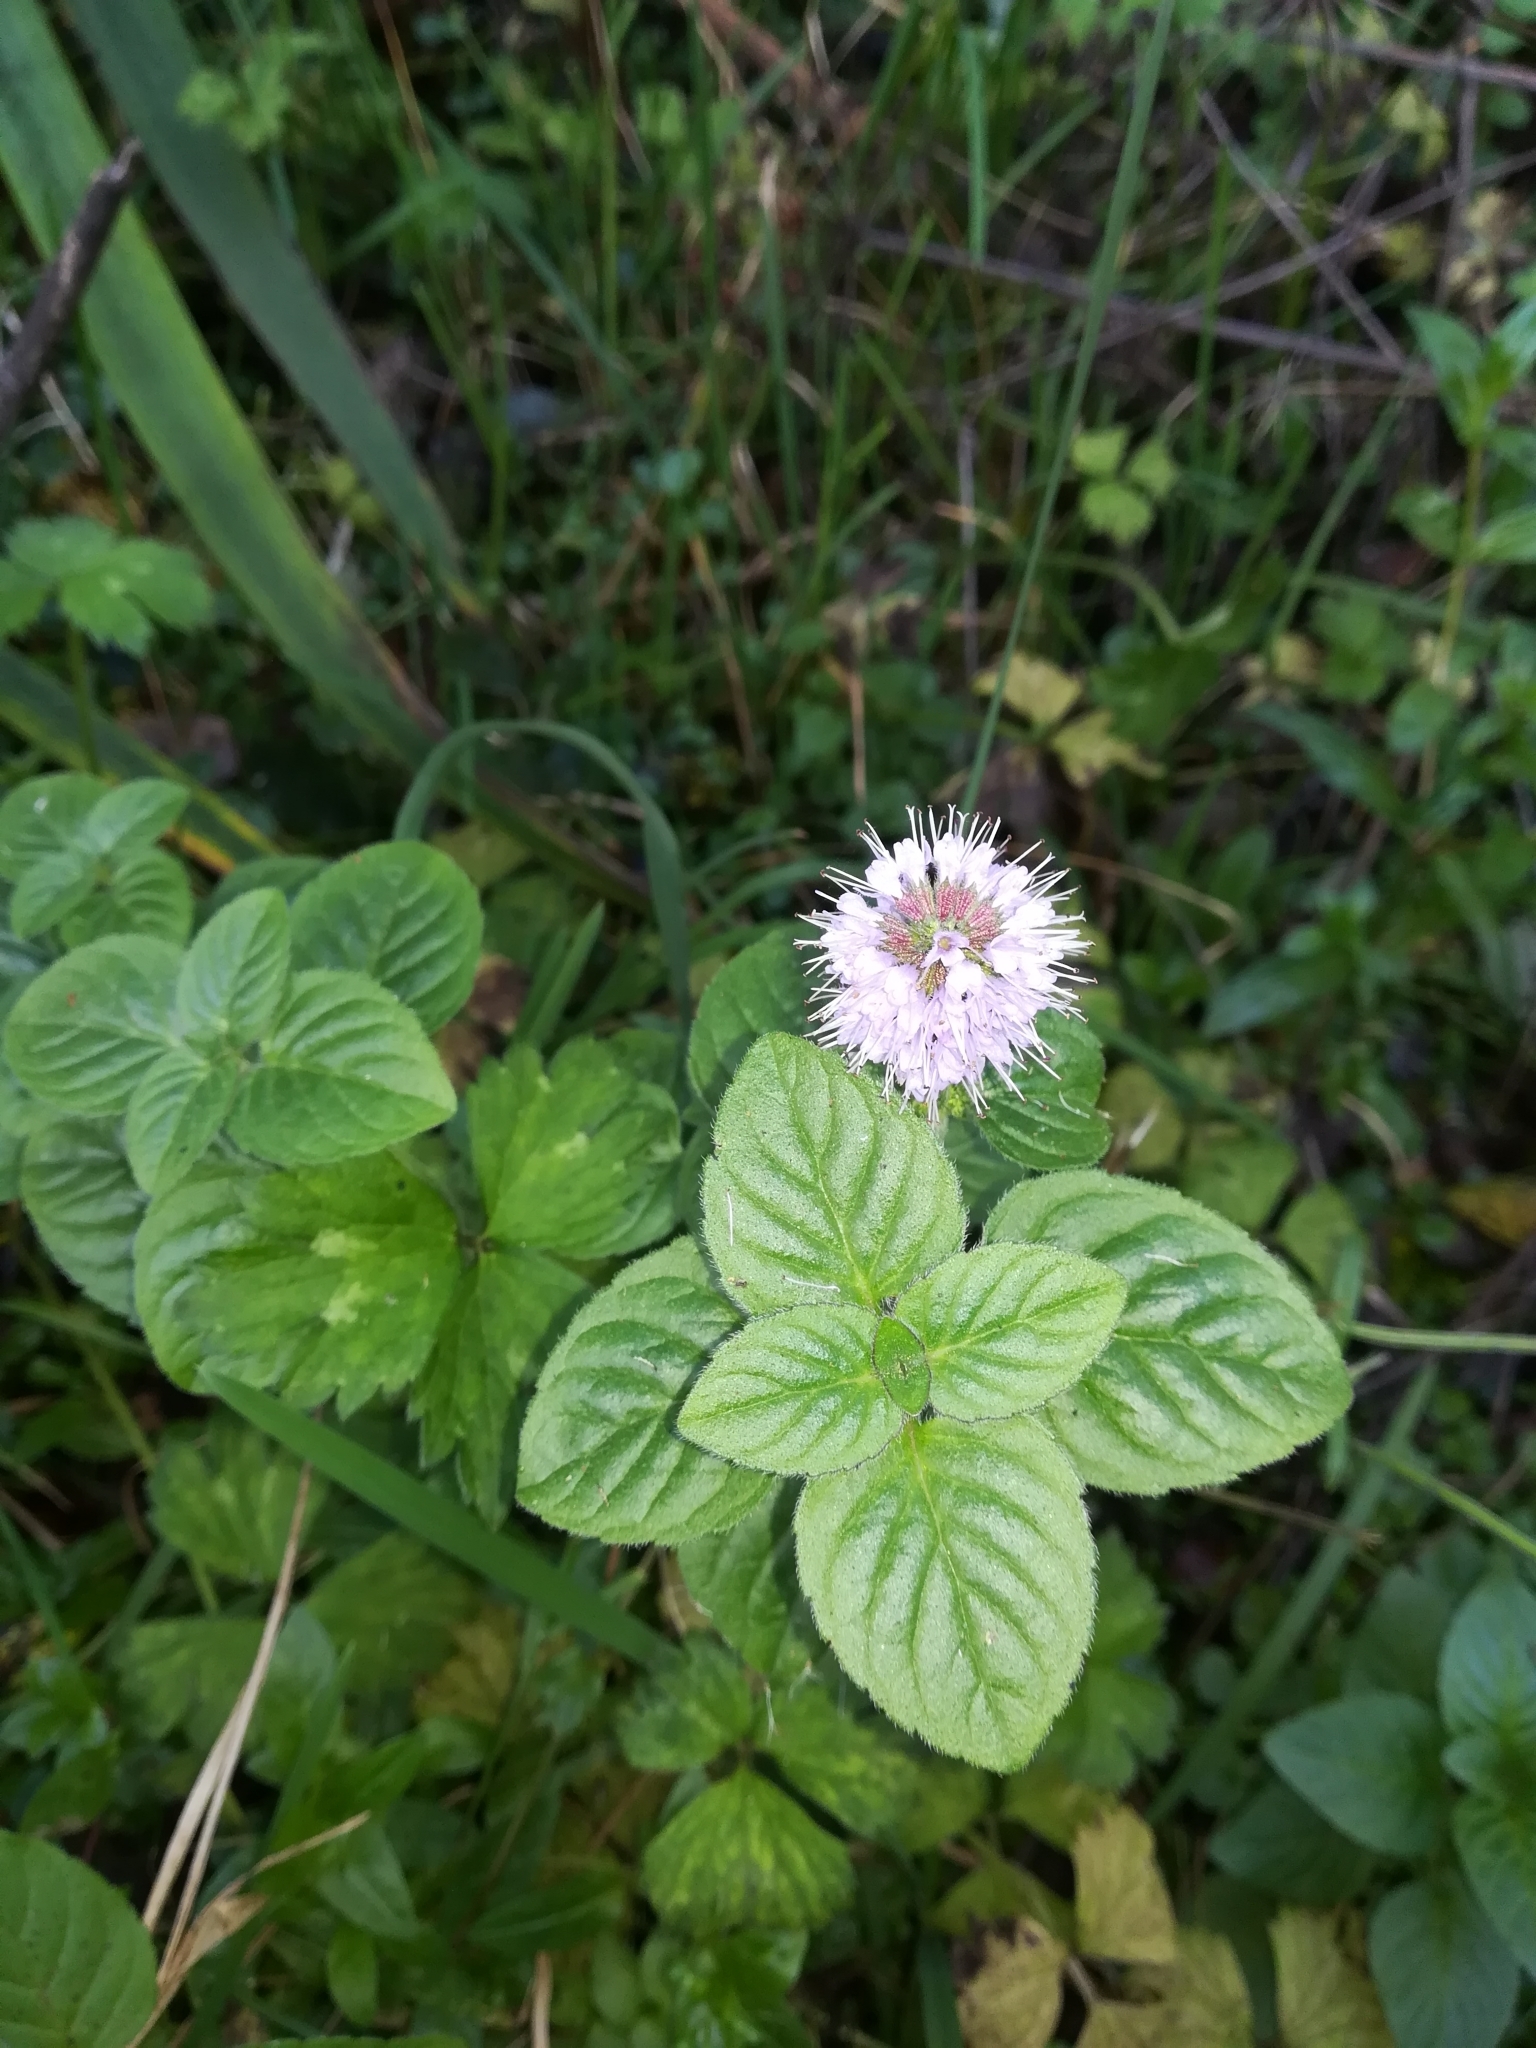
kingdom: Plantae
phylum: Tracheophyta
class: Magnoliopsida
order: Lamiales
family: Lamiaceae
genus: Mentha
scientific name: Mentha aquatica
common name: Water mint
